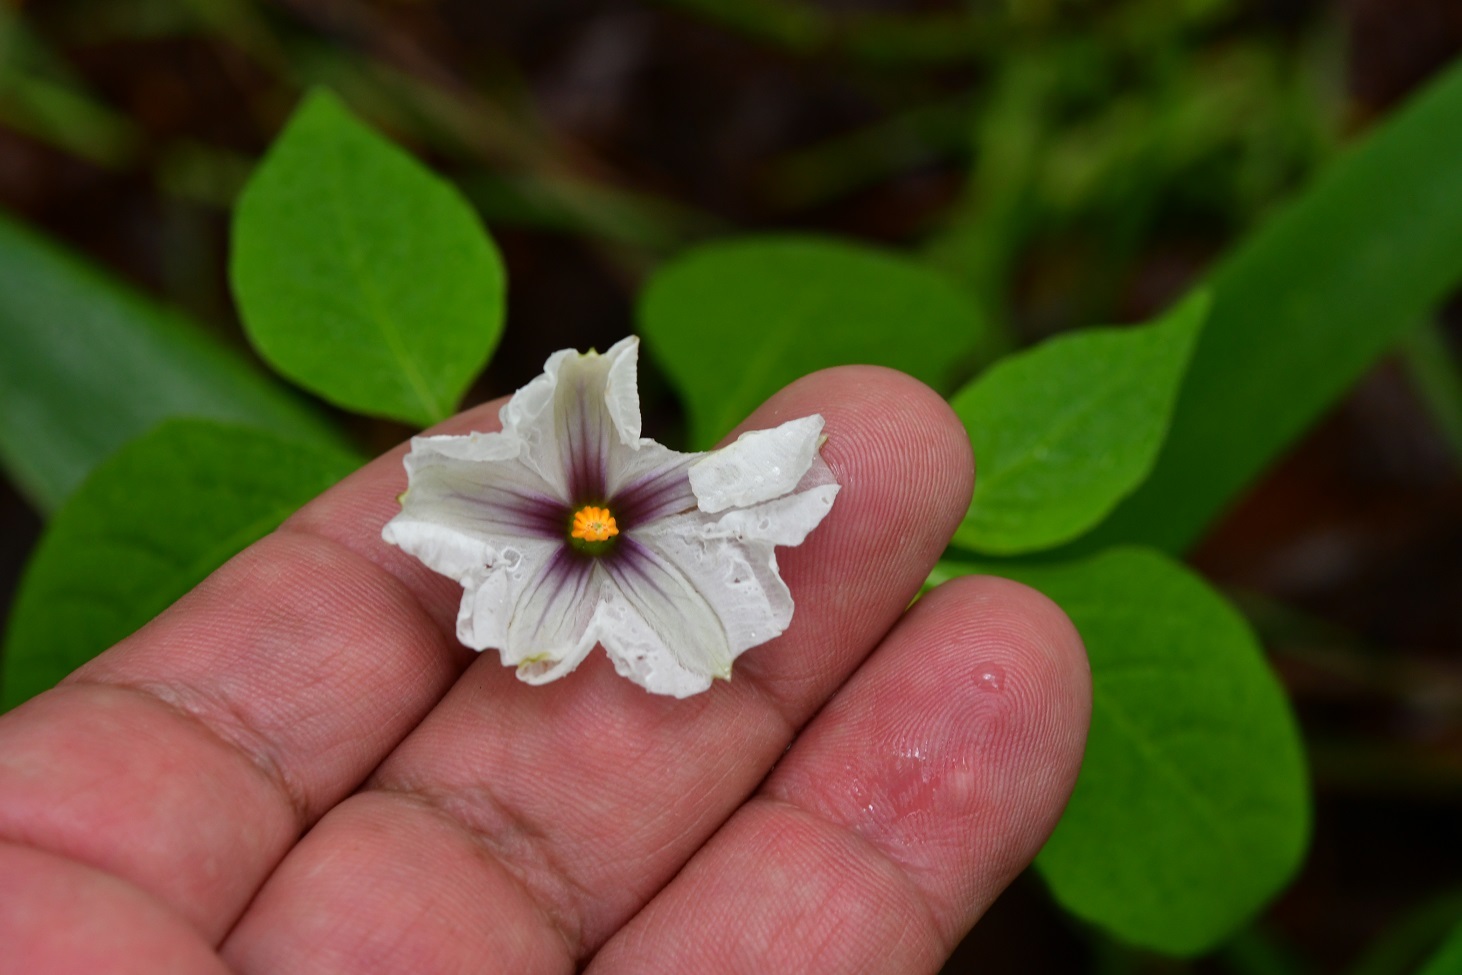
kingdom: Plantae
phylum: Tracheophyta
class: Magnoliopsida
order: Solanales
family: Solanaceae
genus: Lycianthes
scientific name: Lycianthes ciliolata
